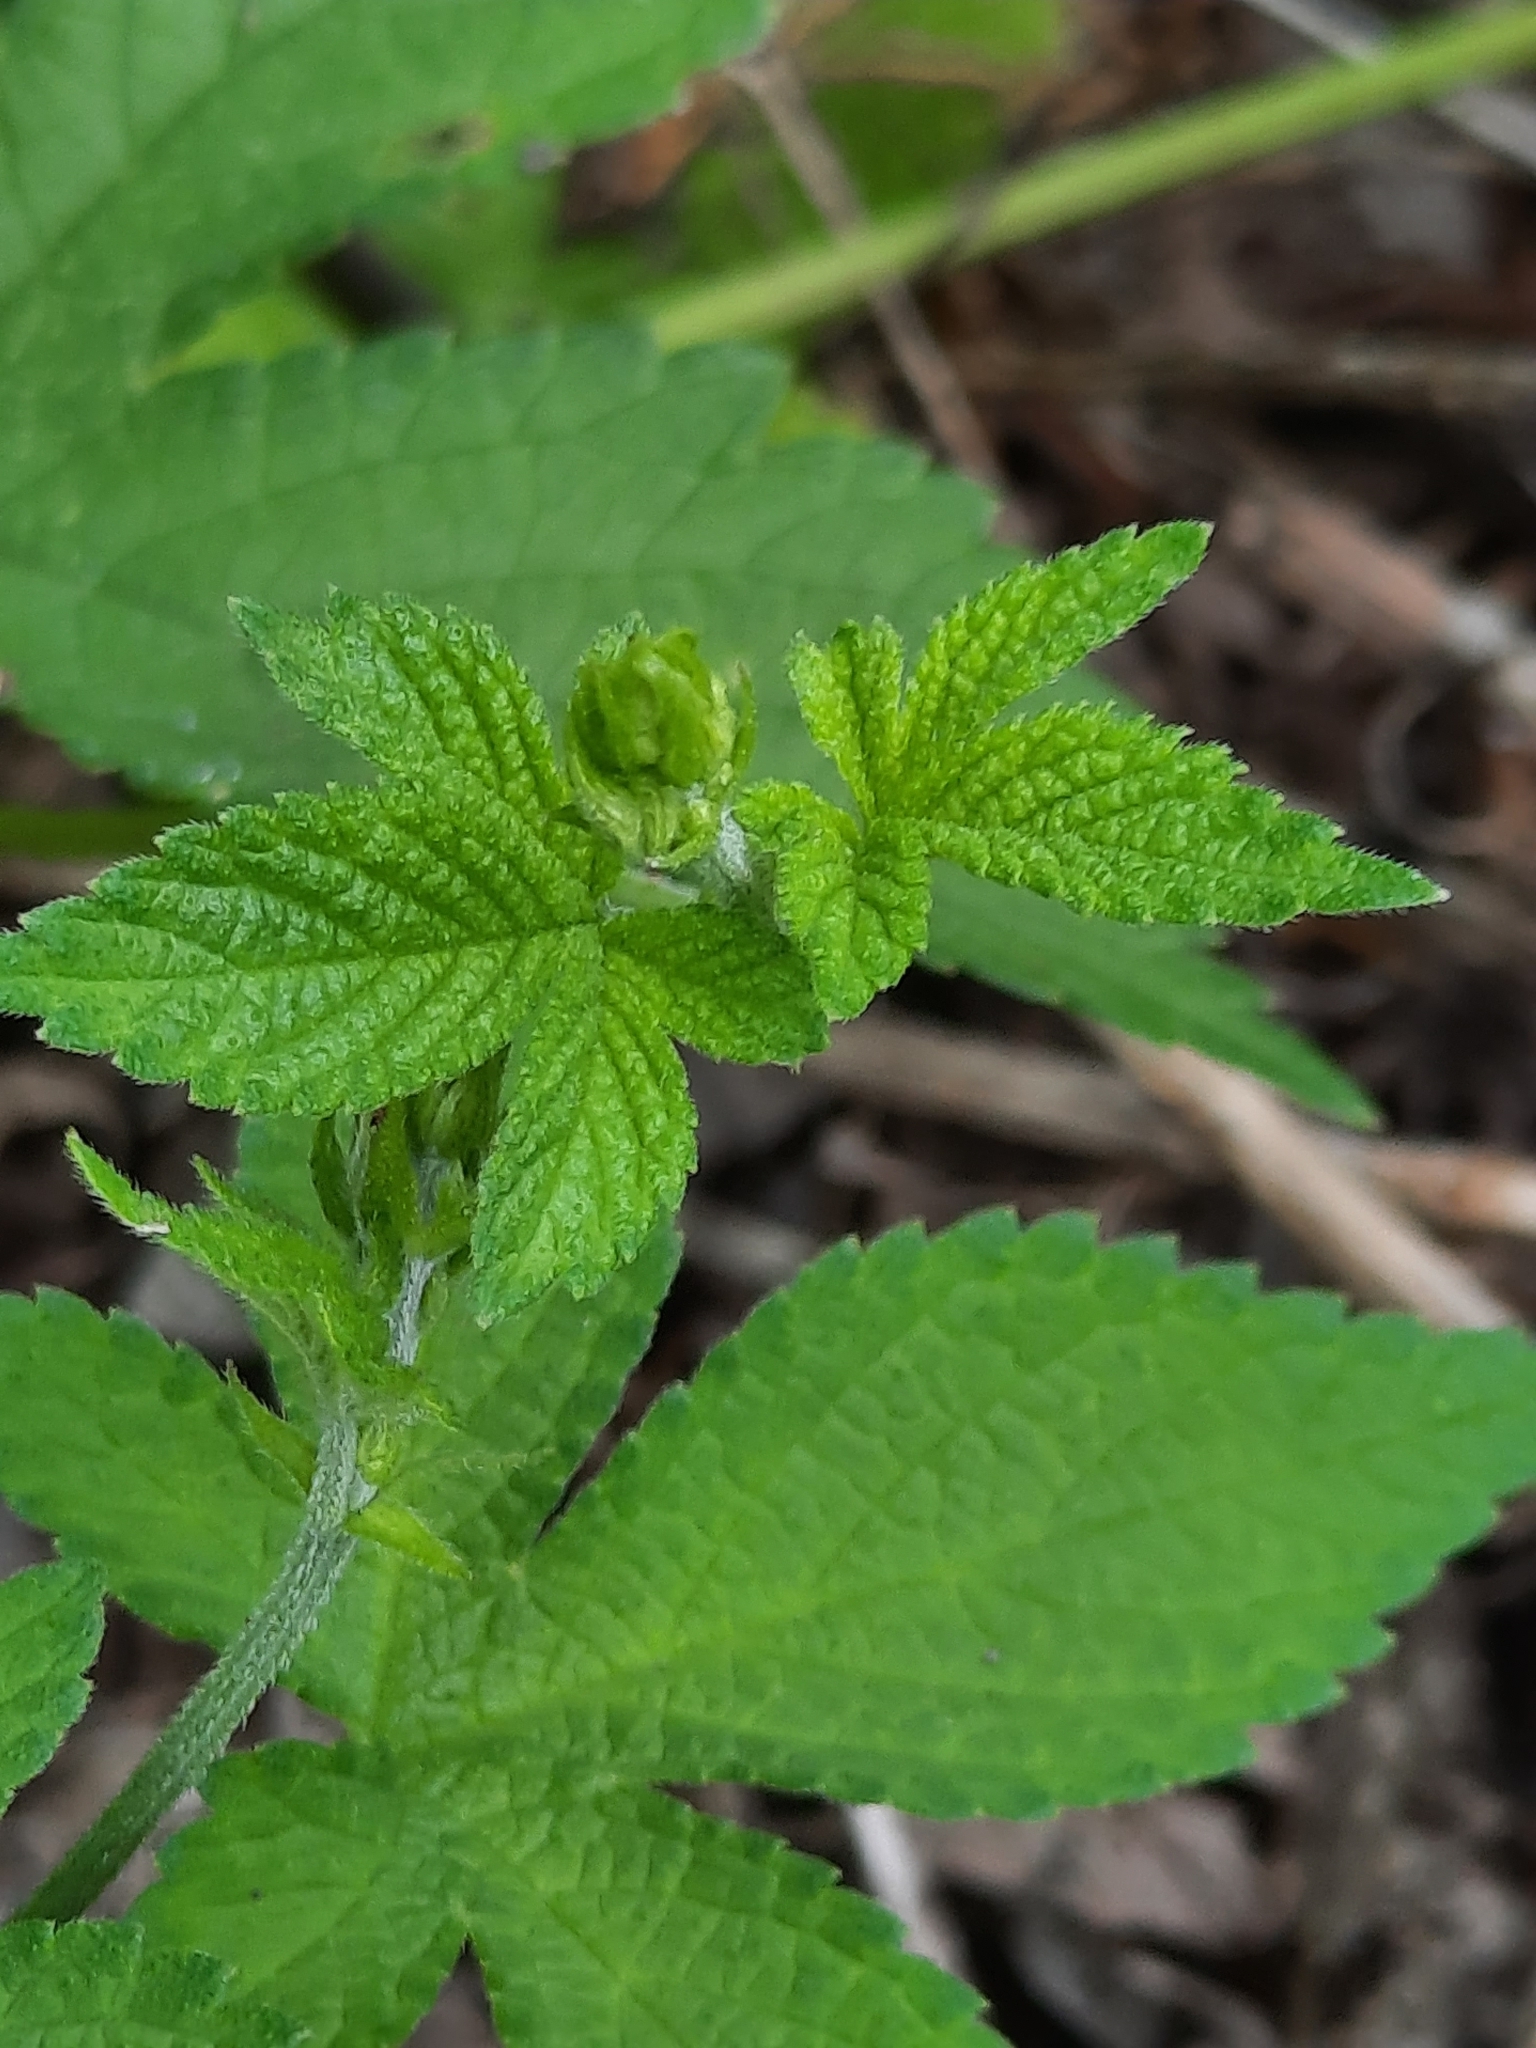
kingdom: Plantae
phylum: Tracheophyta
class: Magnoliopsida
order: Rosales
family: Cannabaceae
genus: Humulus
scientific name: Humulus scandens
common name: Japanese hop
